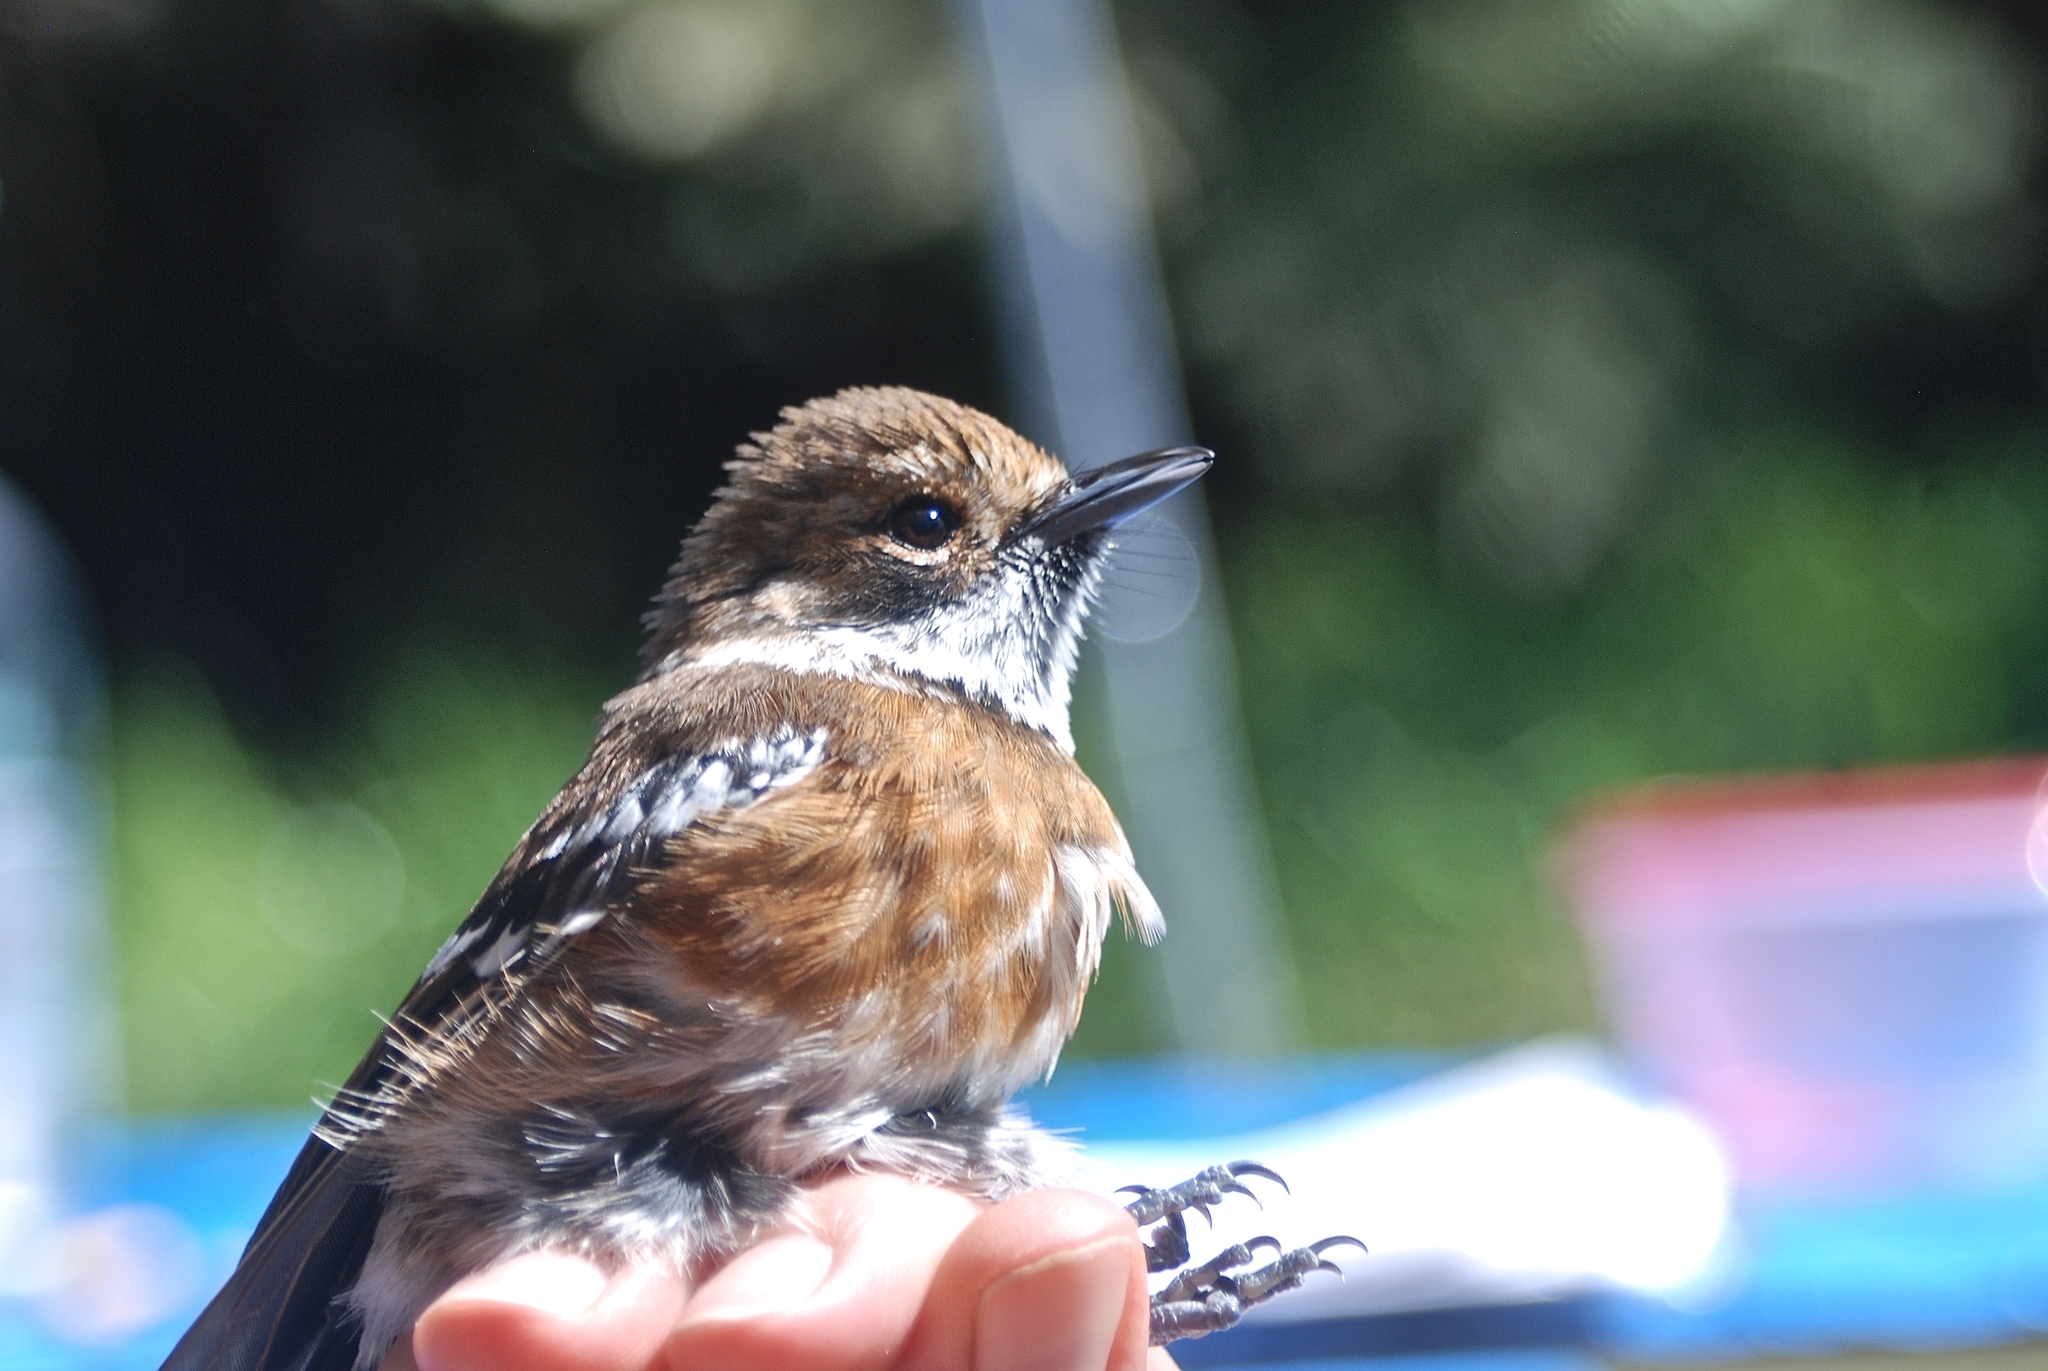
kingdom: Animalia
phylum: Chordata
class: Aves
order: Passeriformes
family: Monarchidae
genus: Chasiempis
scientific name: Chasiempis sandwichensis
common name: Hawaii elepaio
